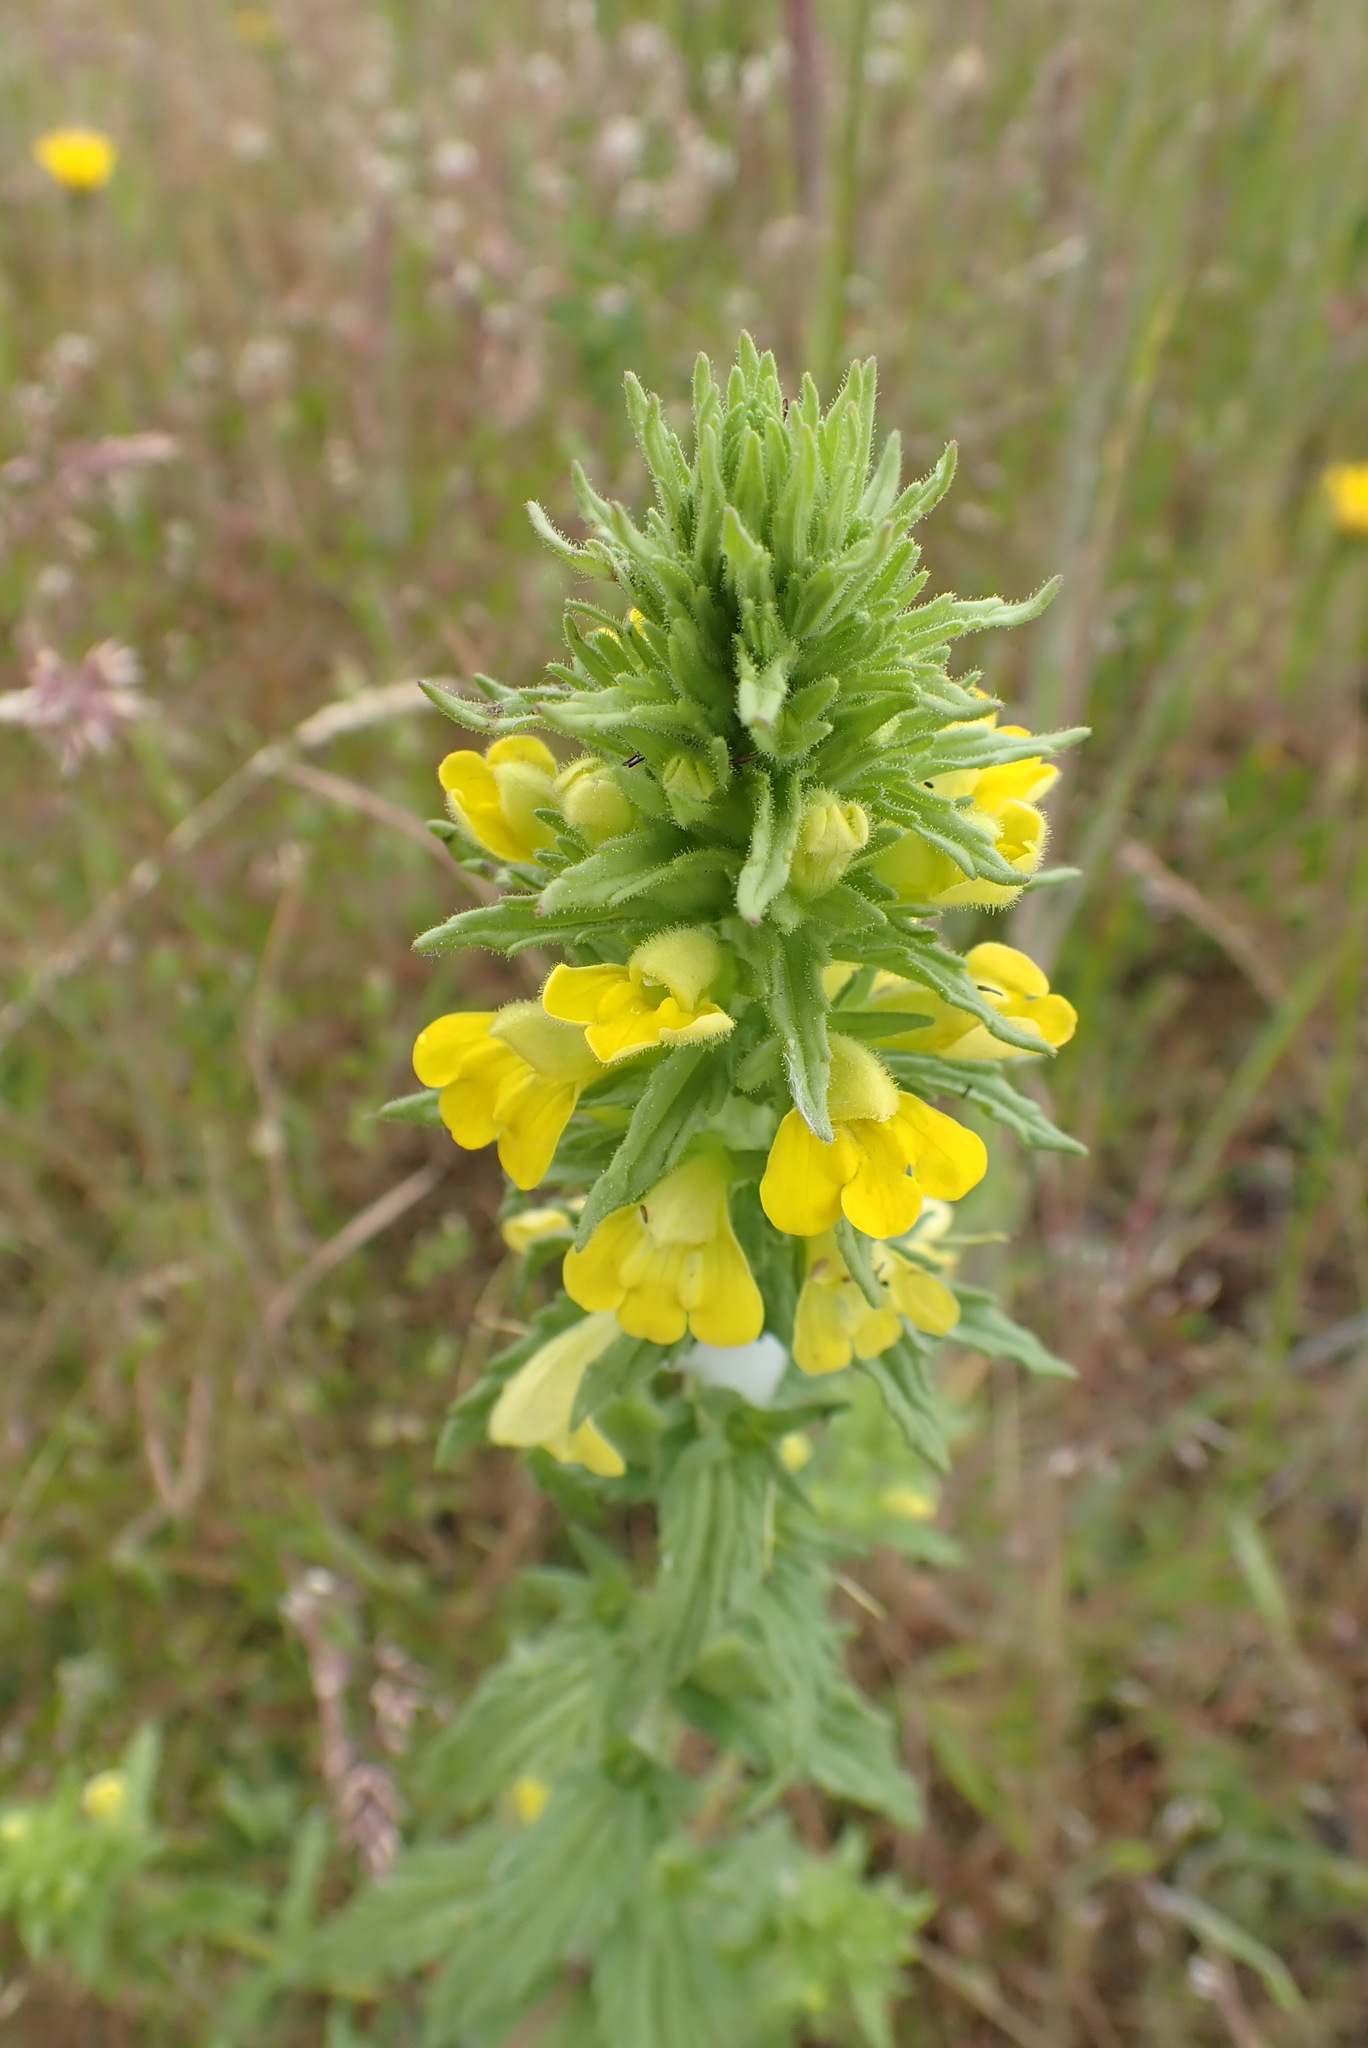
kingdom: Plantae
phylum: Tracheophyta
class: Magnoliopsida
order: Lamiales
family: Orobanchaceae
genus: Bellardia
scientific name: Bellardia viscosa
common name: Sticky parentucellia
